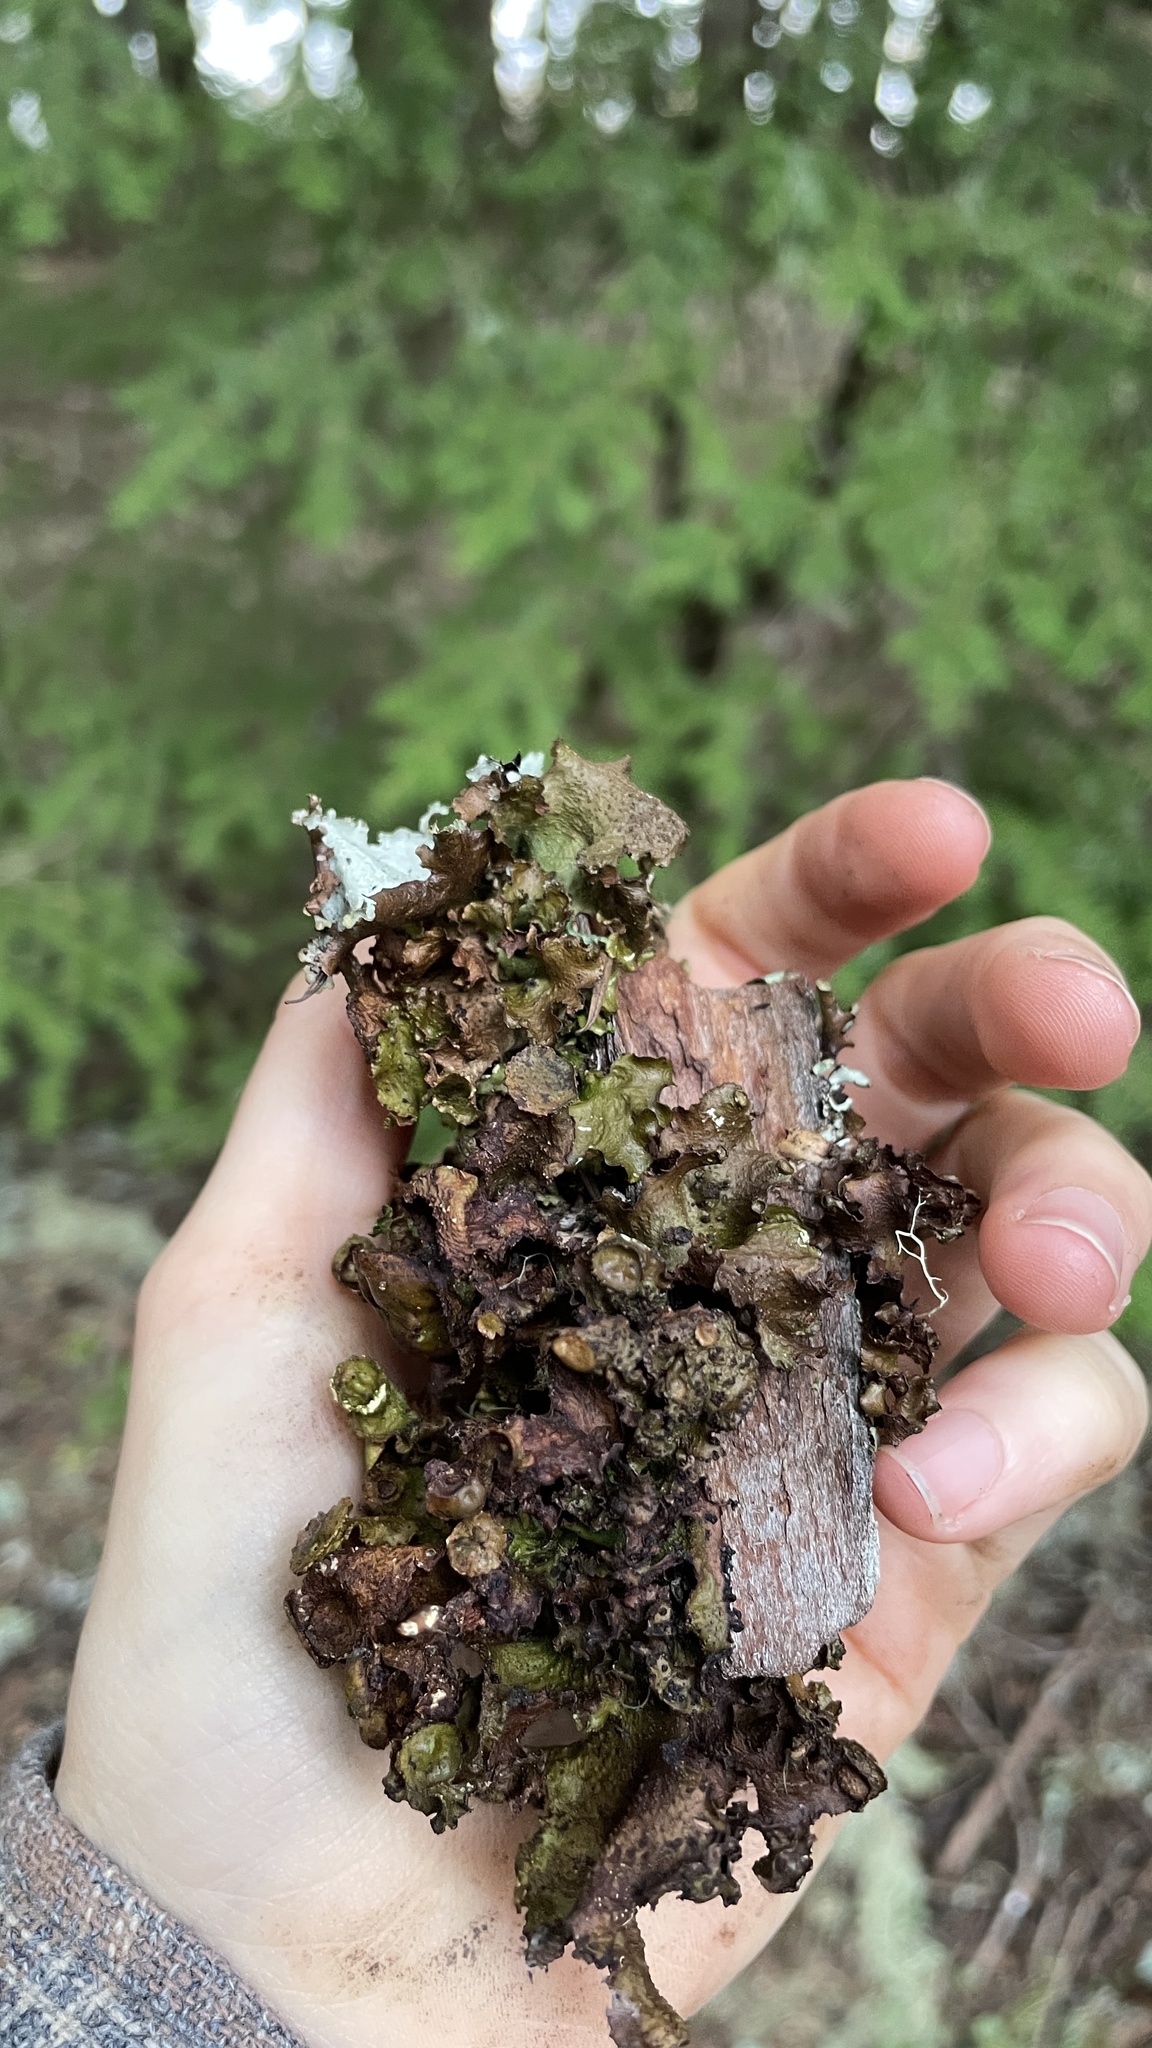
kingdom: Fungi
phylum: Ascomycota
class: Lecanoromycetes
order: Lecanorales
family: Parmeliaceae
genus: Tuckermanopsis
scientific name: Tuckermanopsis platyphylla
